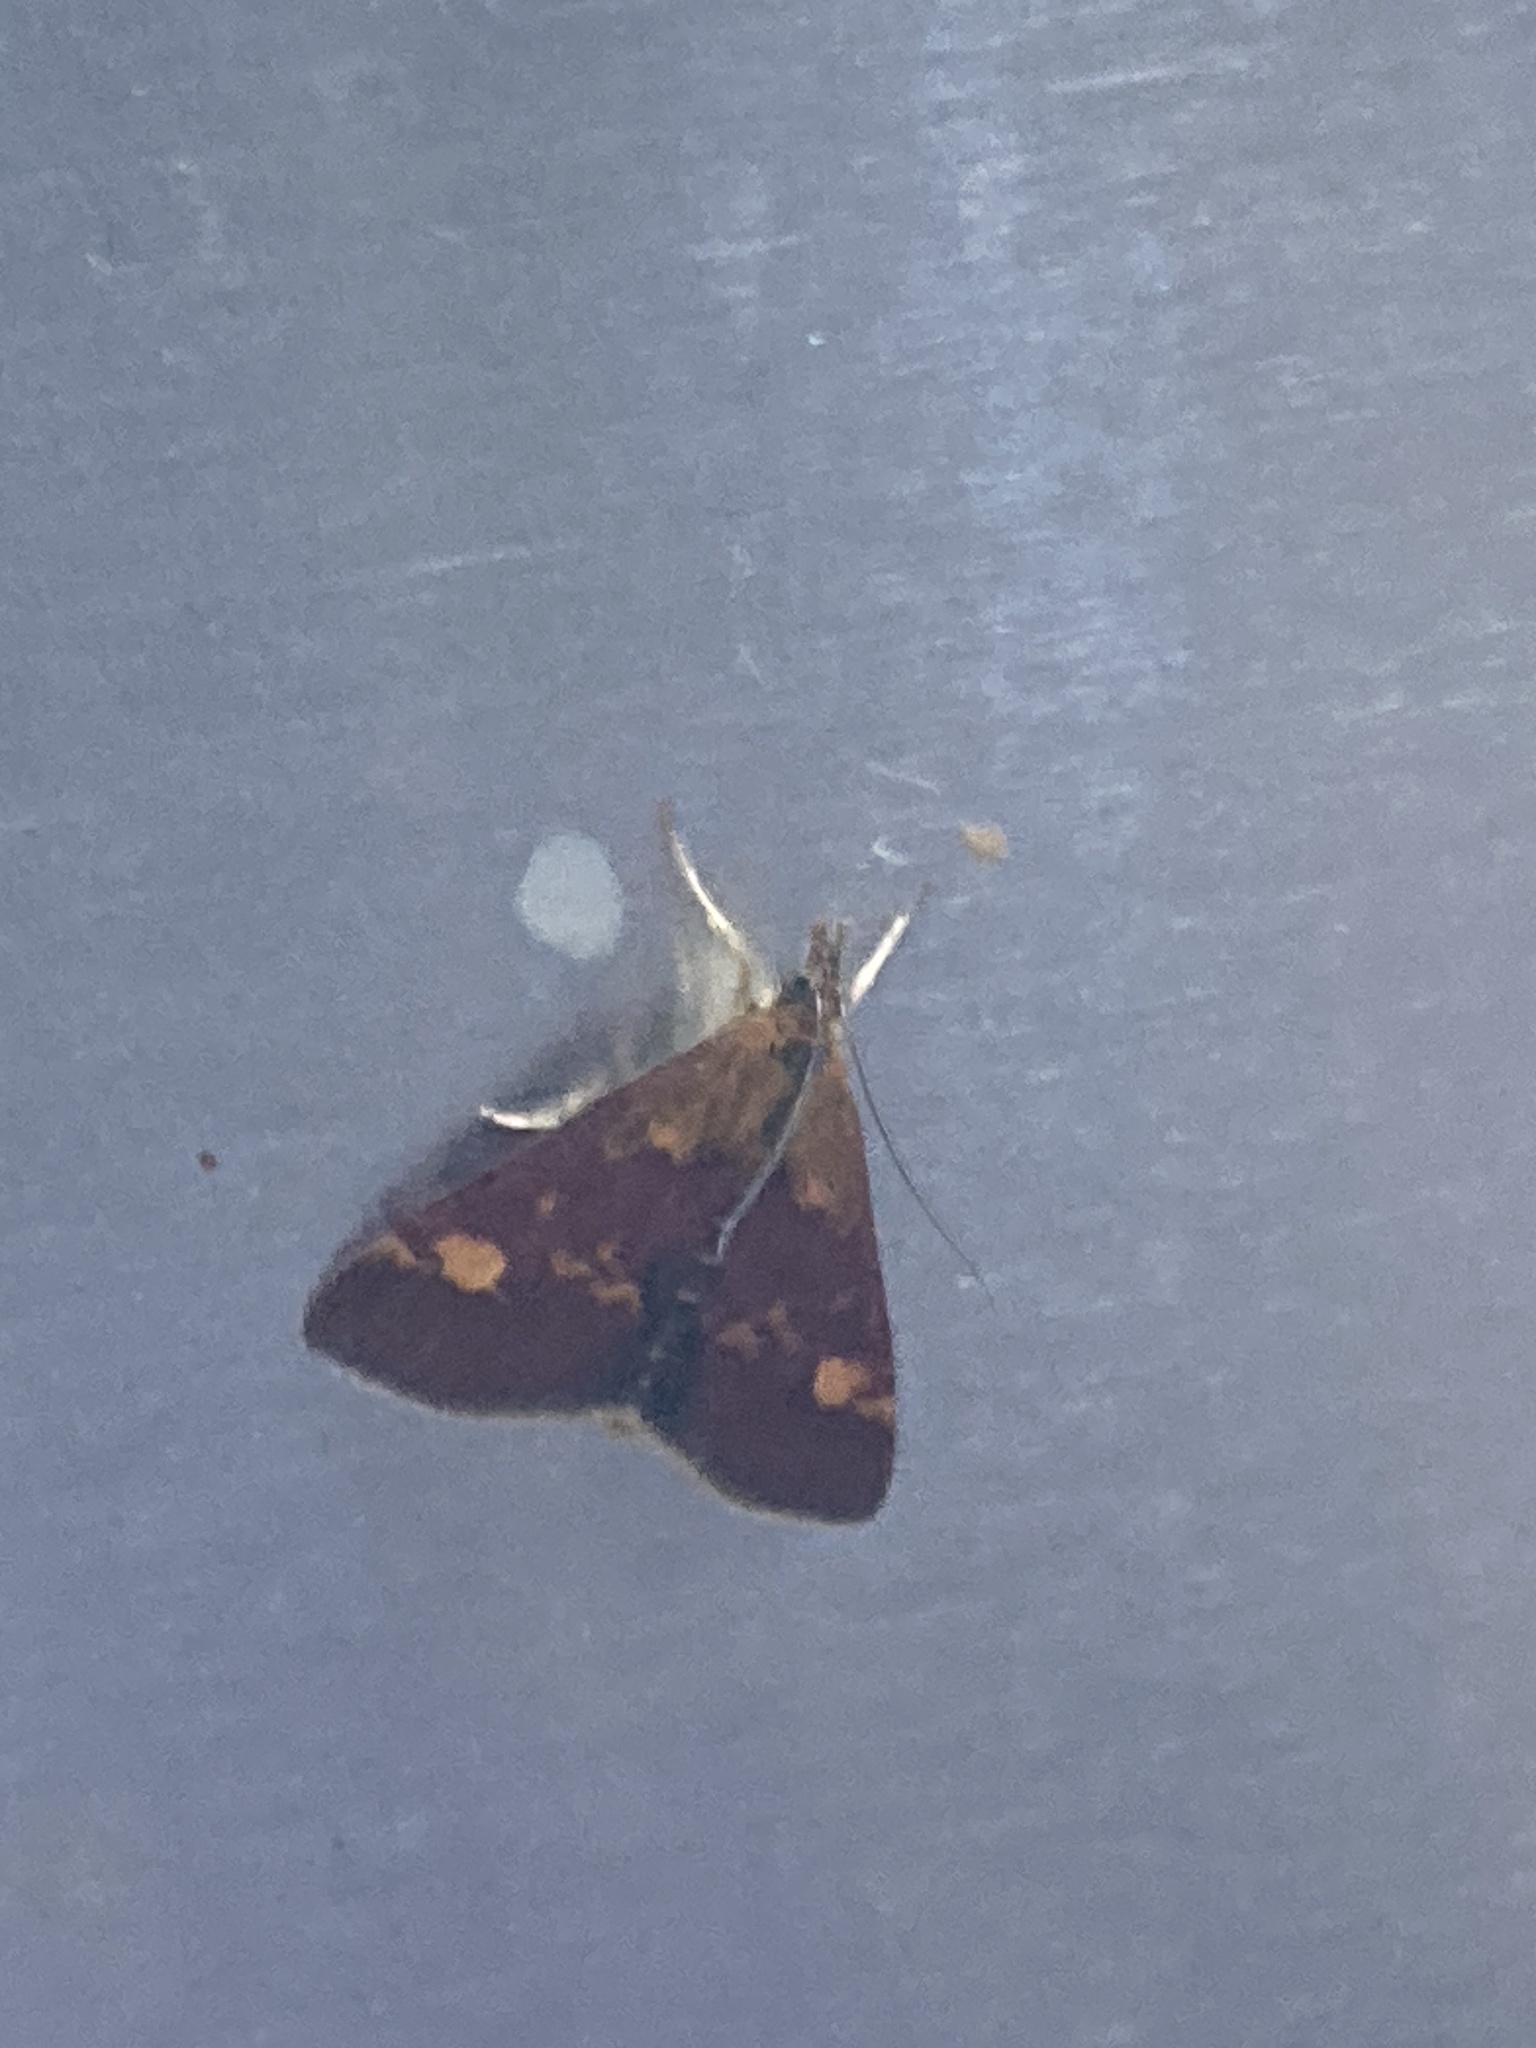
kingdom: Animalia
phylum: Arthropoda
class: Insecta
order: Lepidoptera
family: Crambidae
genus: Pyrausta
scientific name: Pyrausta aurata
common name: Small purple & gold
